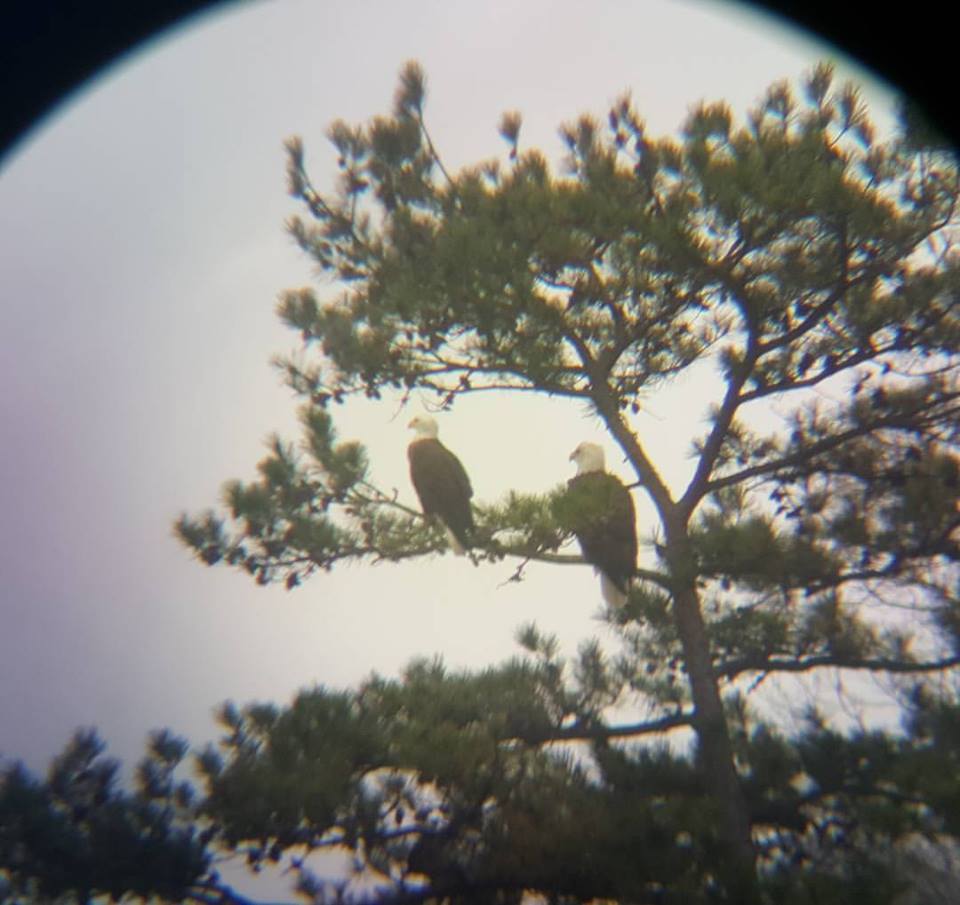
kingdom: Animalia
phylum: Chordata
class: Aves
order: Accipitriformes
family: Accipitridae
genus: Haliaeetus
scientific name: Haliaeetus leucocephalus
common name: Bald eagle
